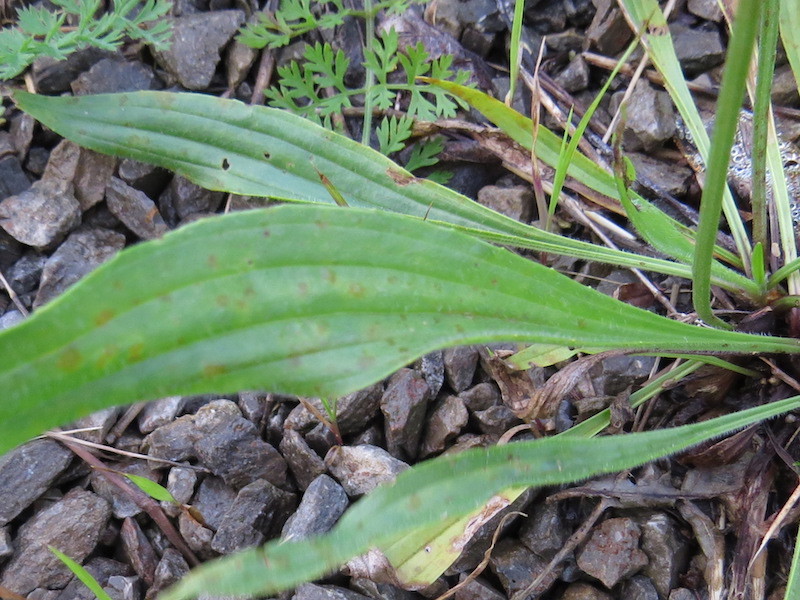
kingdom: Plantae
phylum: Tracheophyta
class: Magnoliopsida
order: Lamiales
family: Plantaginaceae
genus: Plantago
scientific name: Plantago lanceolata
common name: Ribwort plantain
